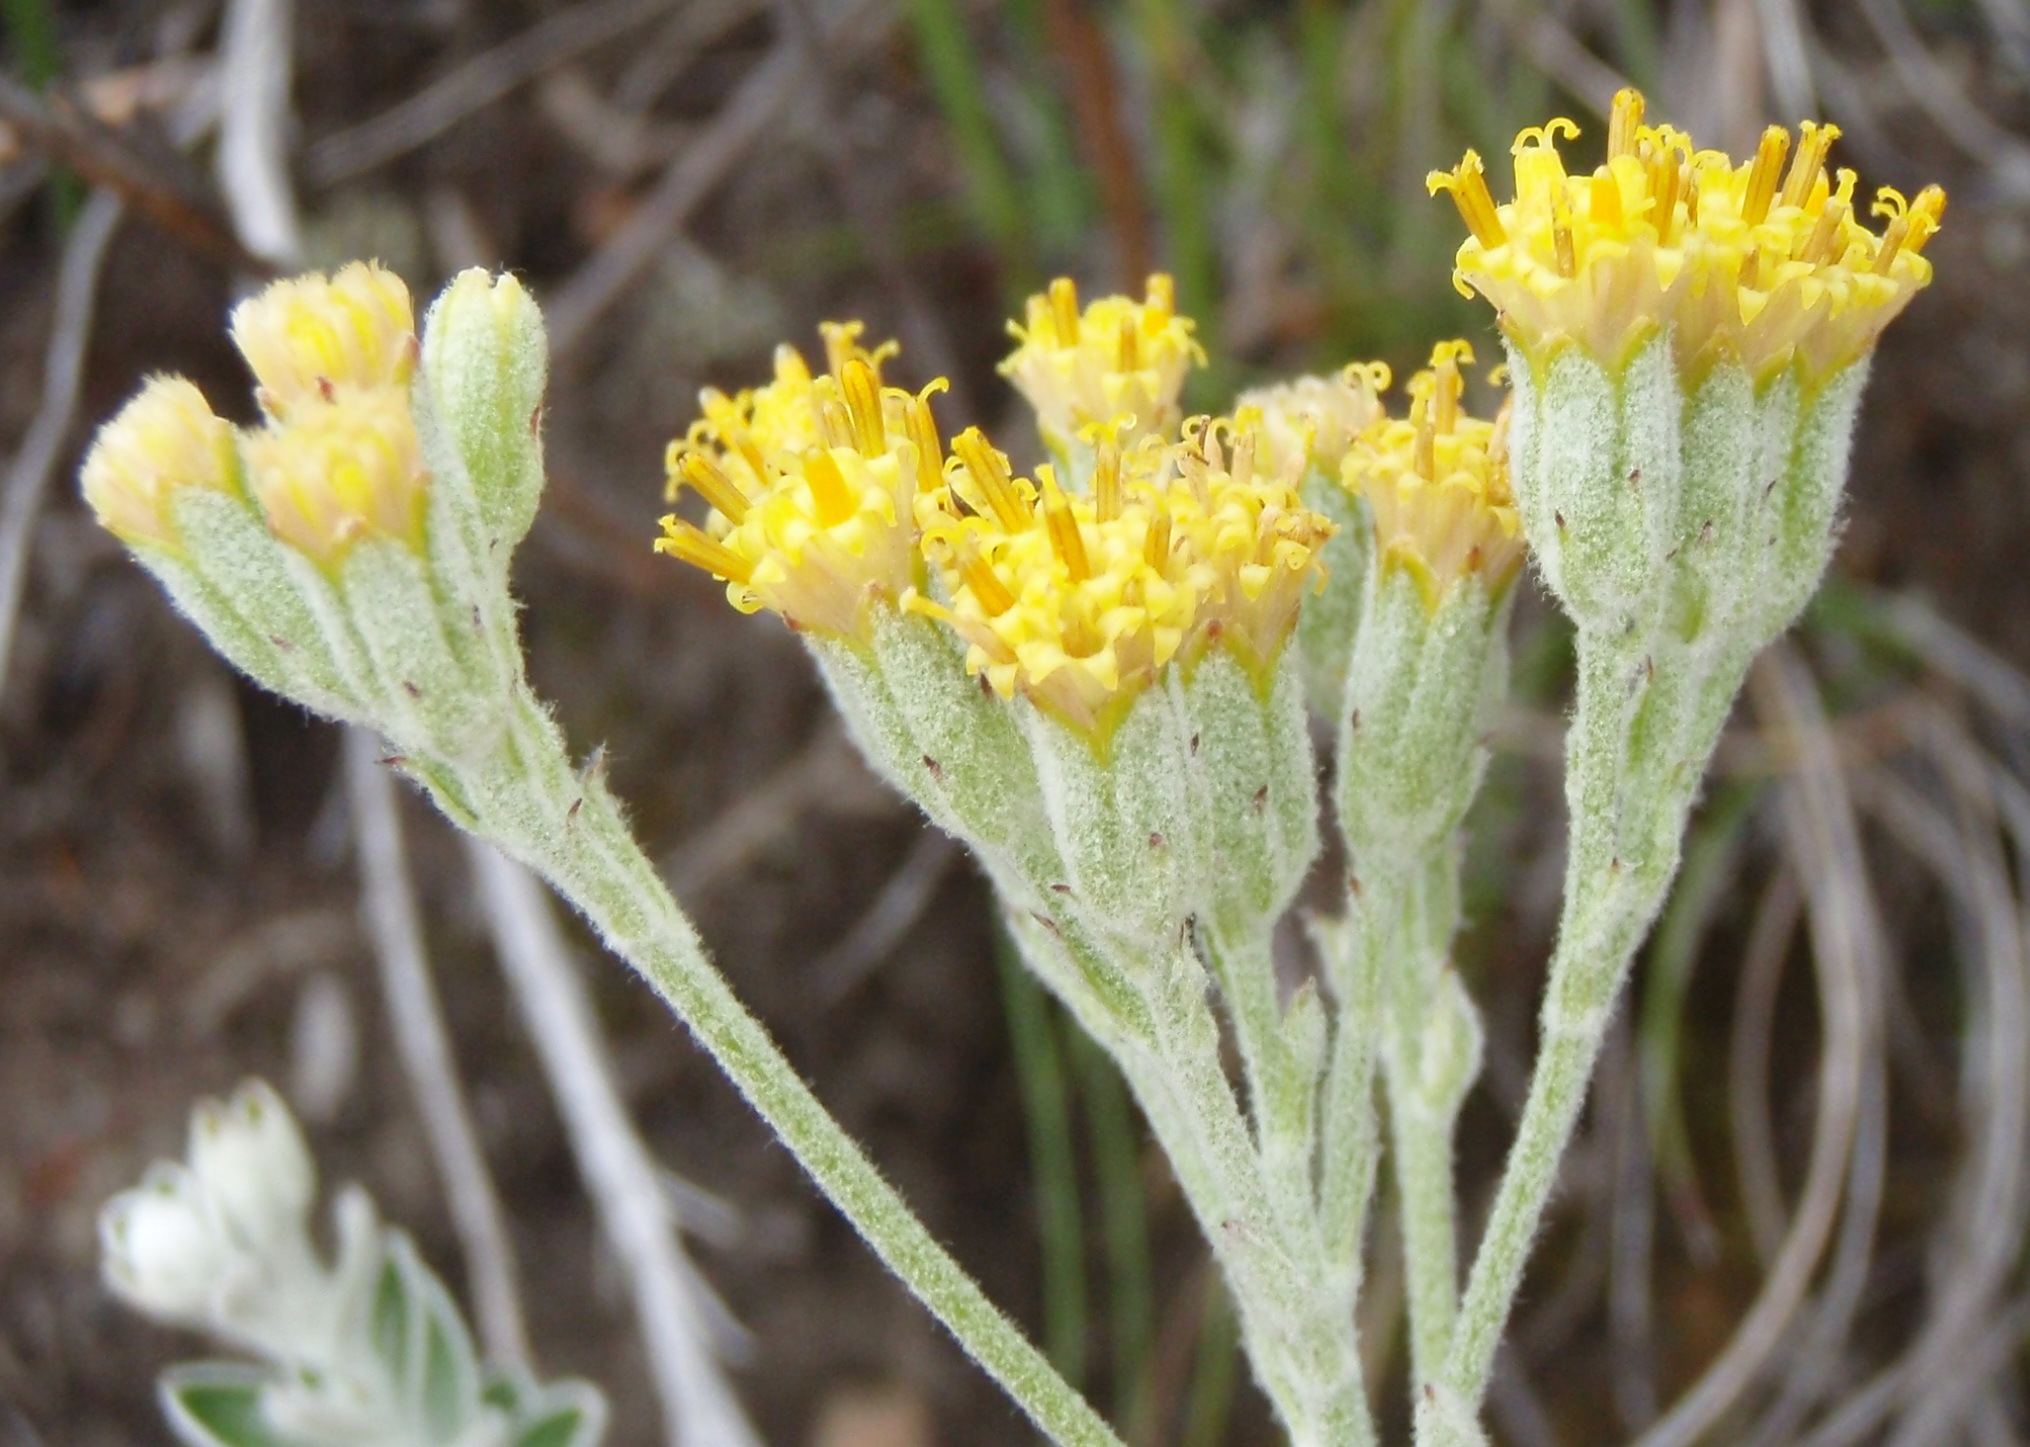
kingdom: Plantae
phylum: Tracheophyta
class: Magnoliopsida
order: Asterales
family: Asteraceae
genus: Senecio
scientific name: Senecio pauciflosculosus
